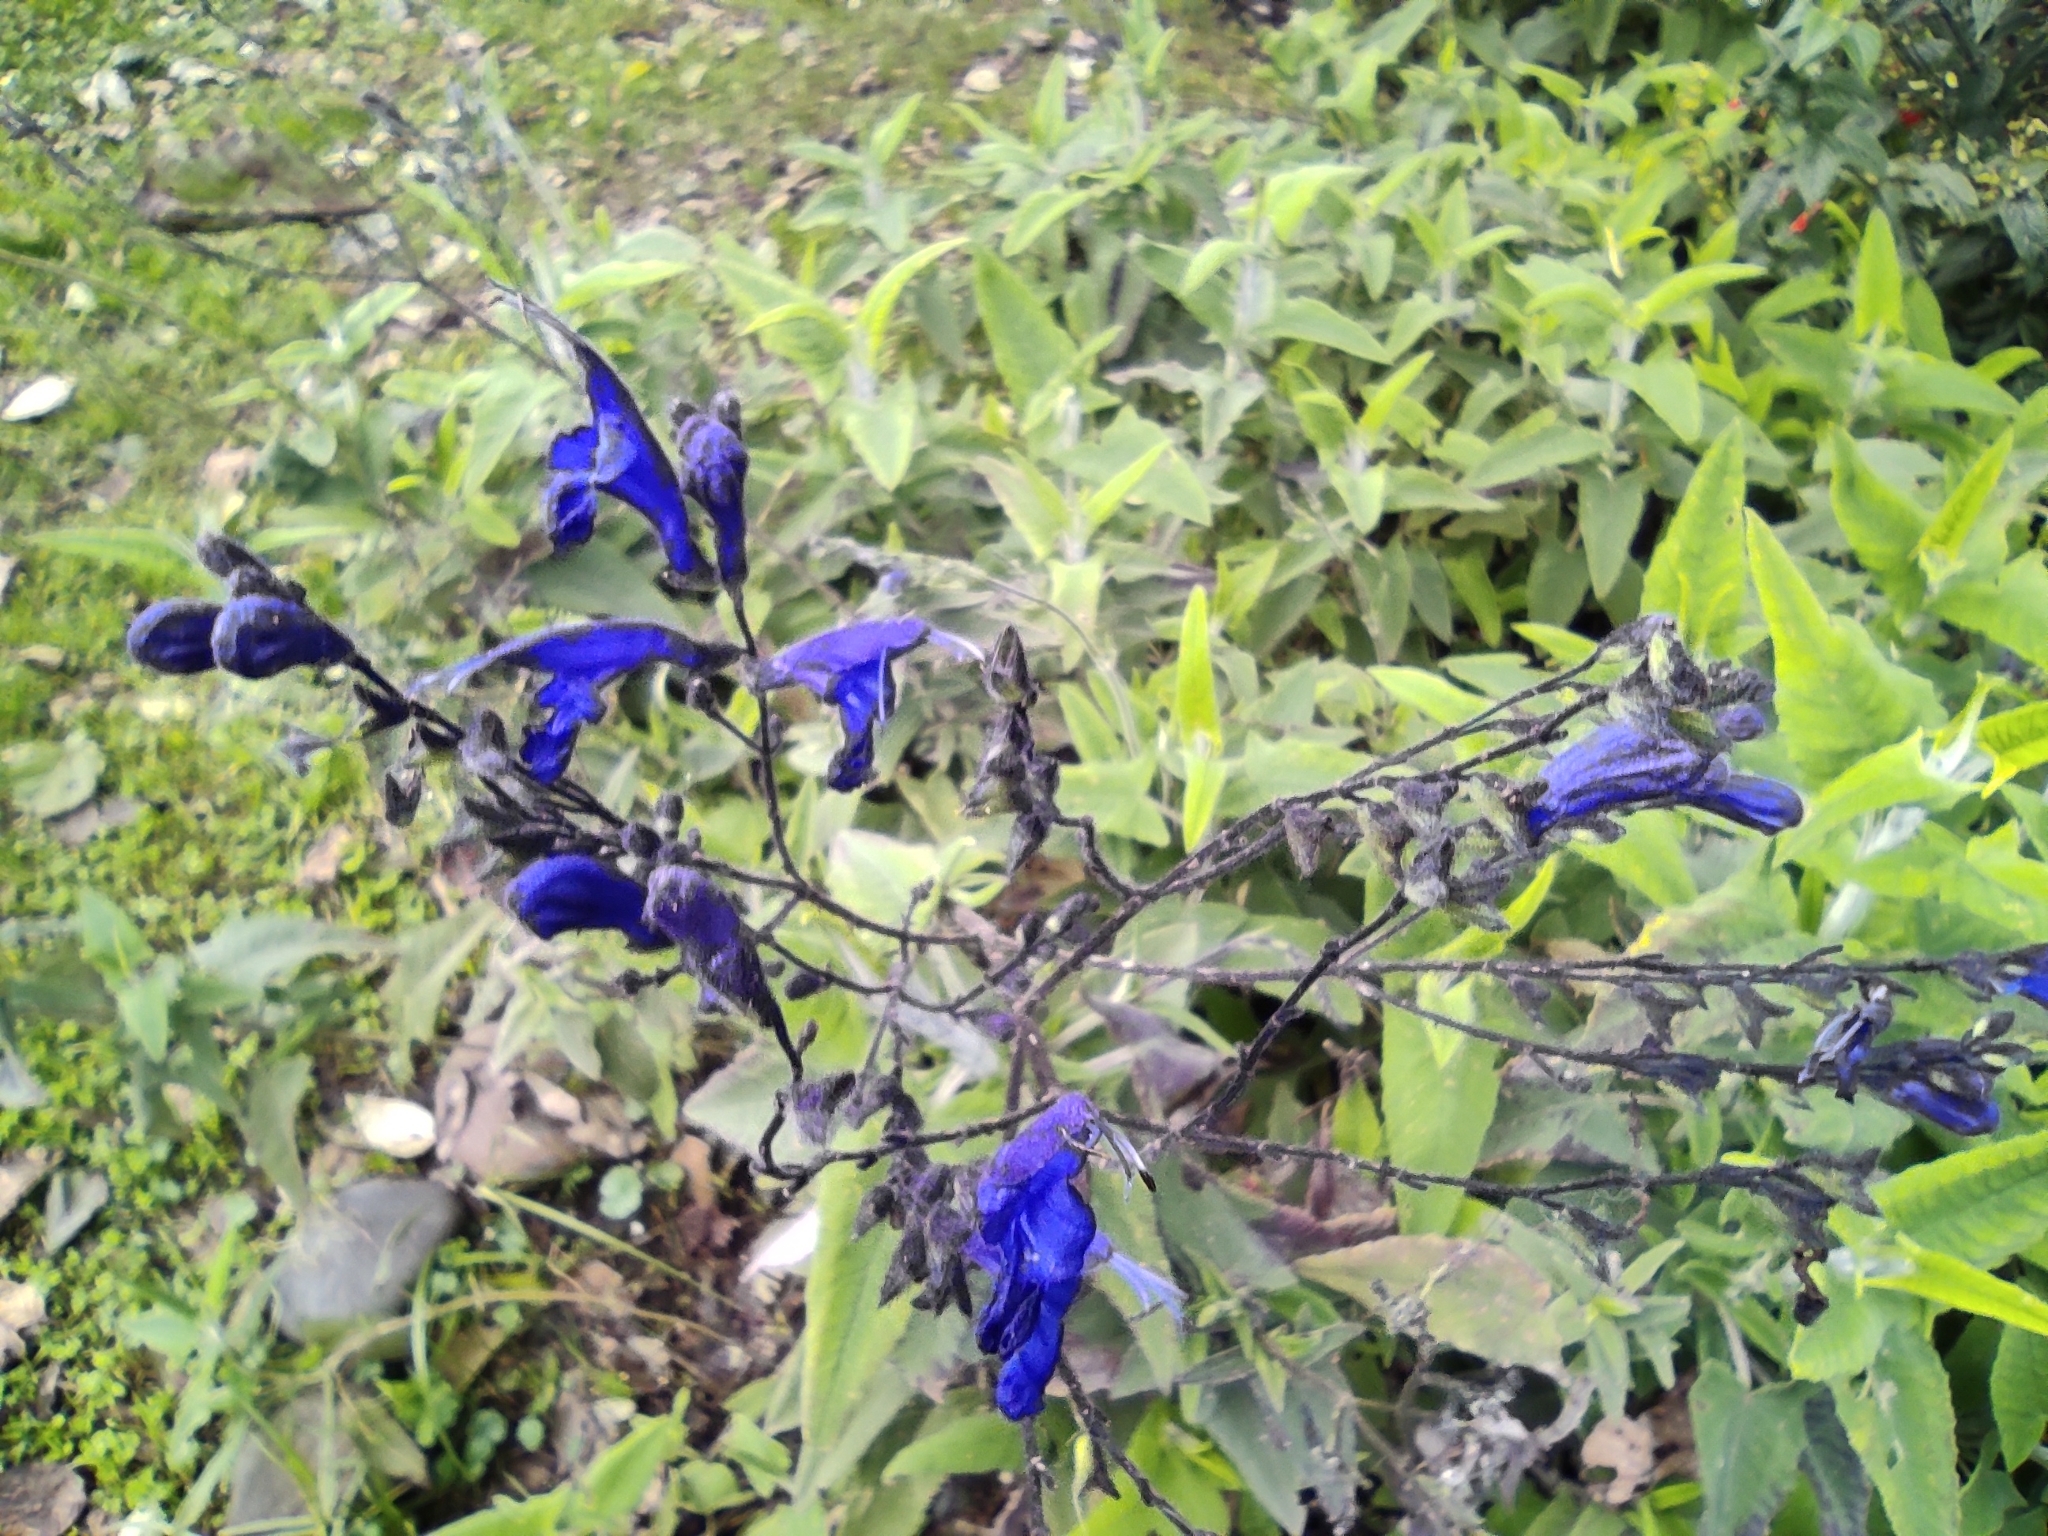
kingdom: Plantae
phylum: Tracheophyta
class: Magnoliopsida
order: Lamiales
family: Lamiaceae
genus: Salvia
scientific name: Salvia sagittata
